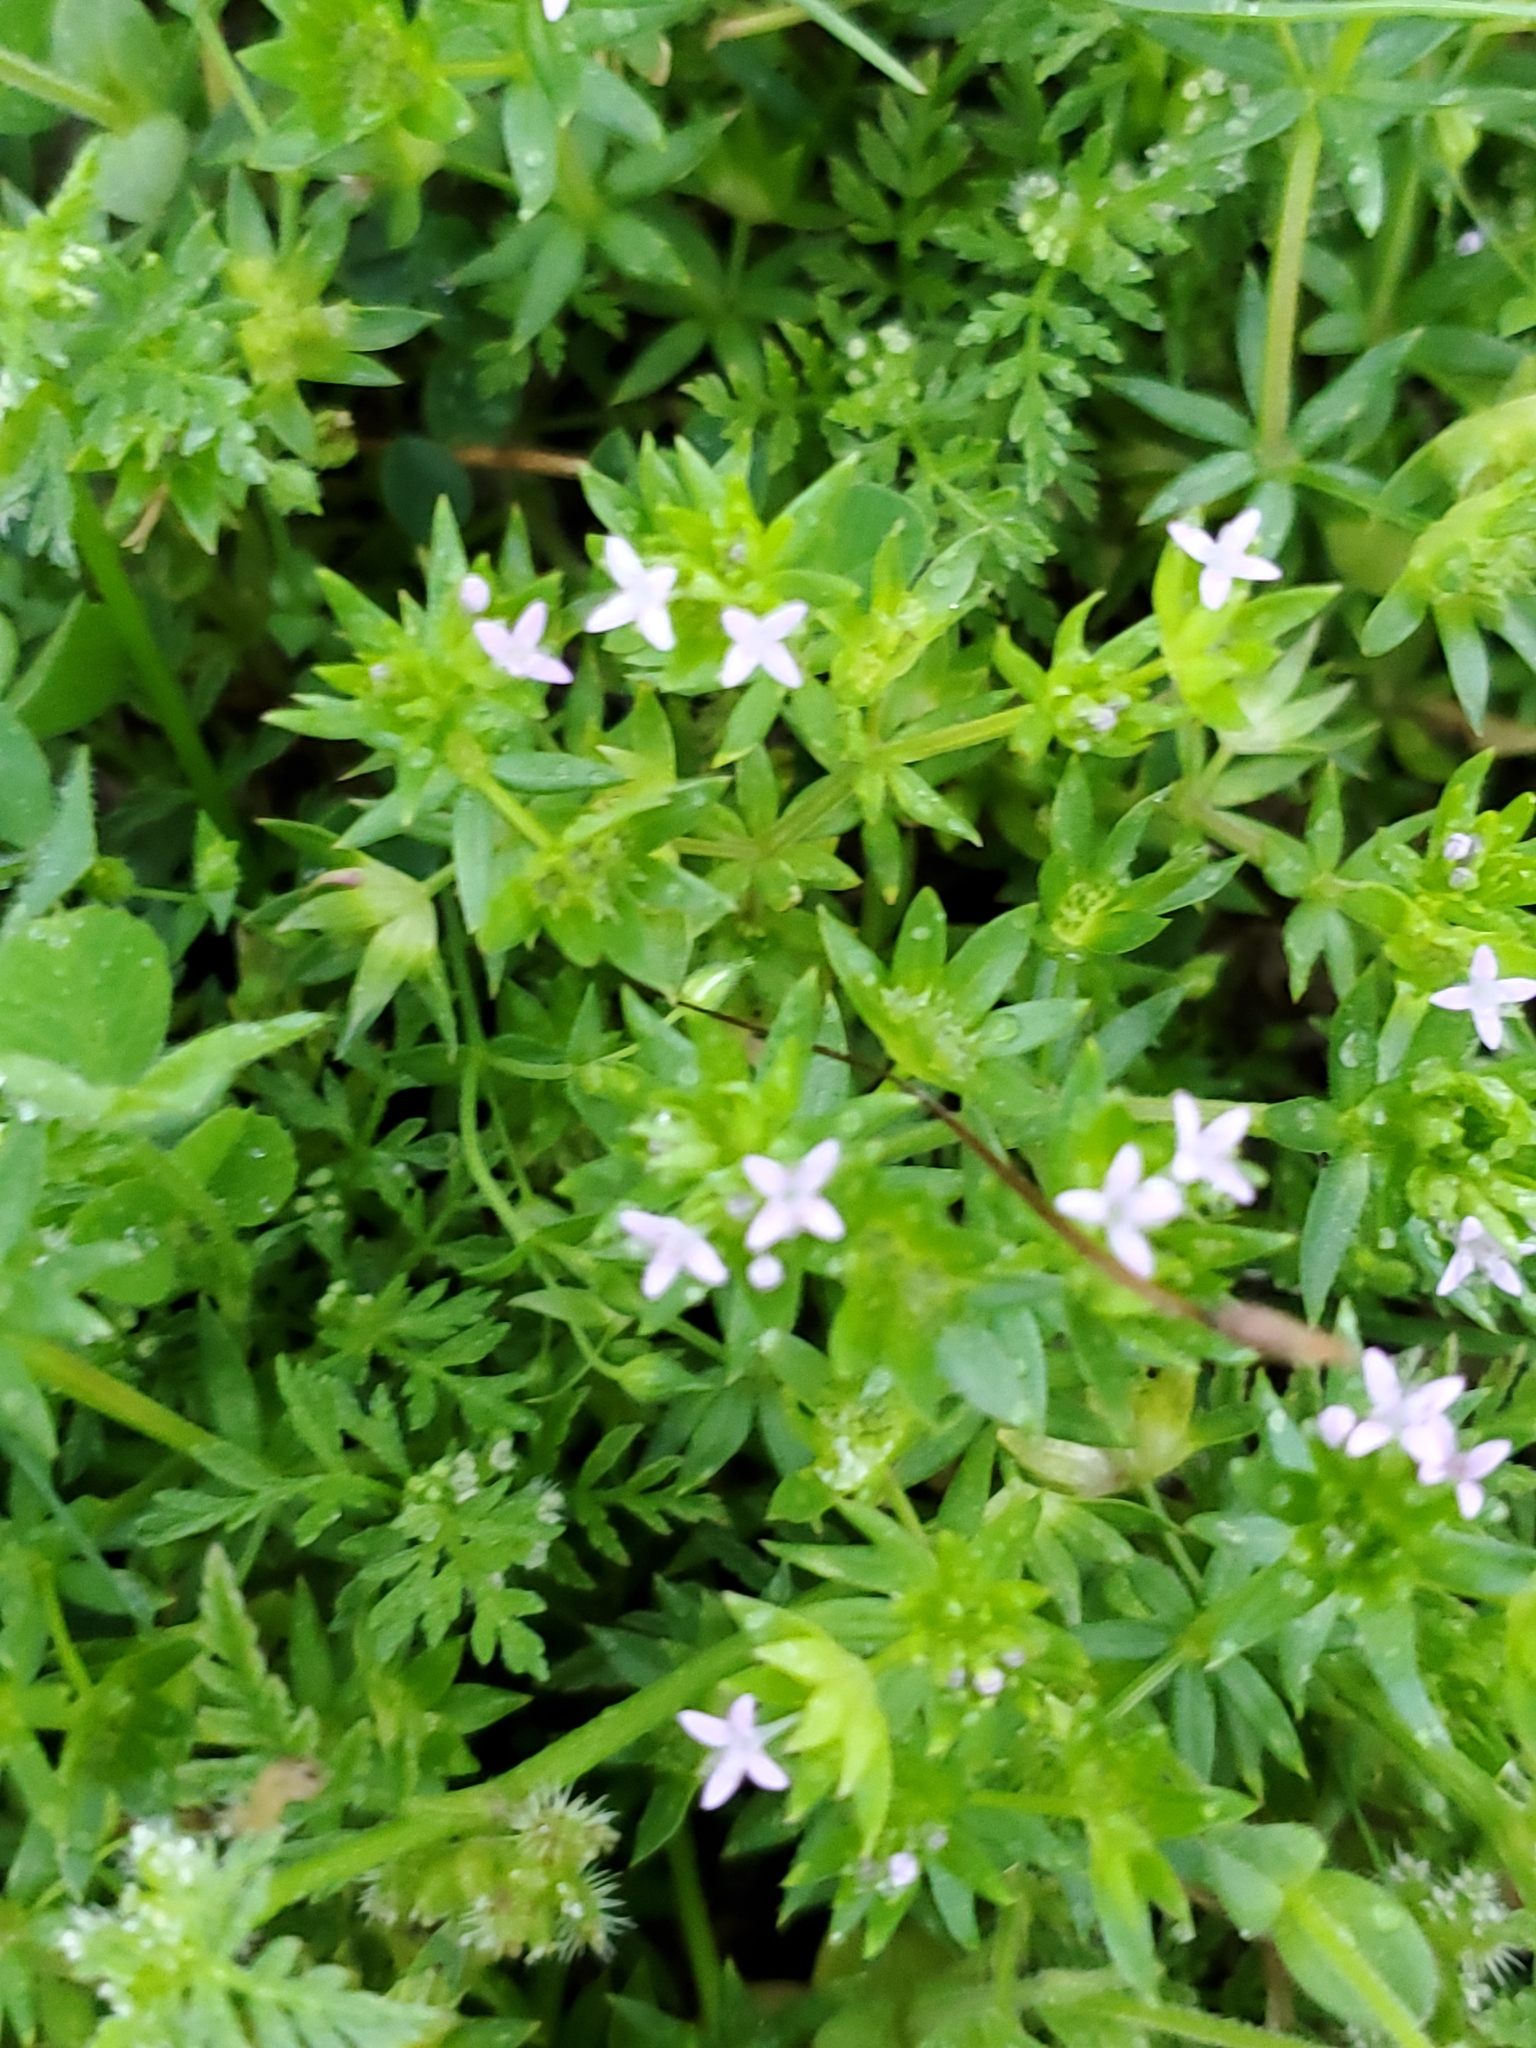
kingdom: Plantae
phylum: Tracheophyta
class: Magnoliopsida
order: Gentianales
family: Rubiaceae
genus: Sherardia
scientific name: Sherardia arvensis
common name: Field madder
